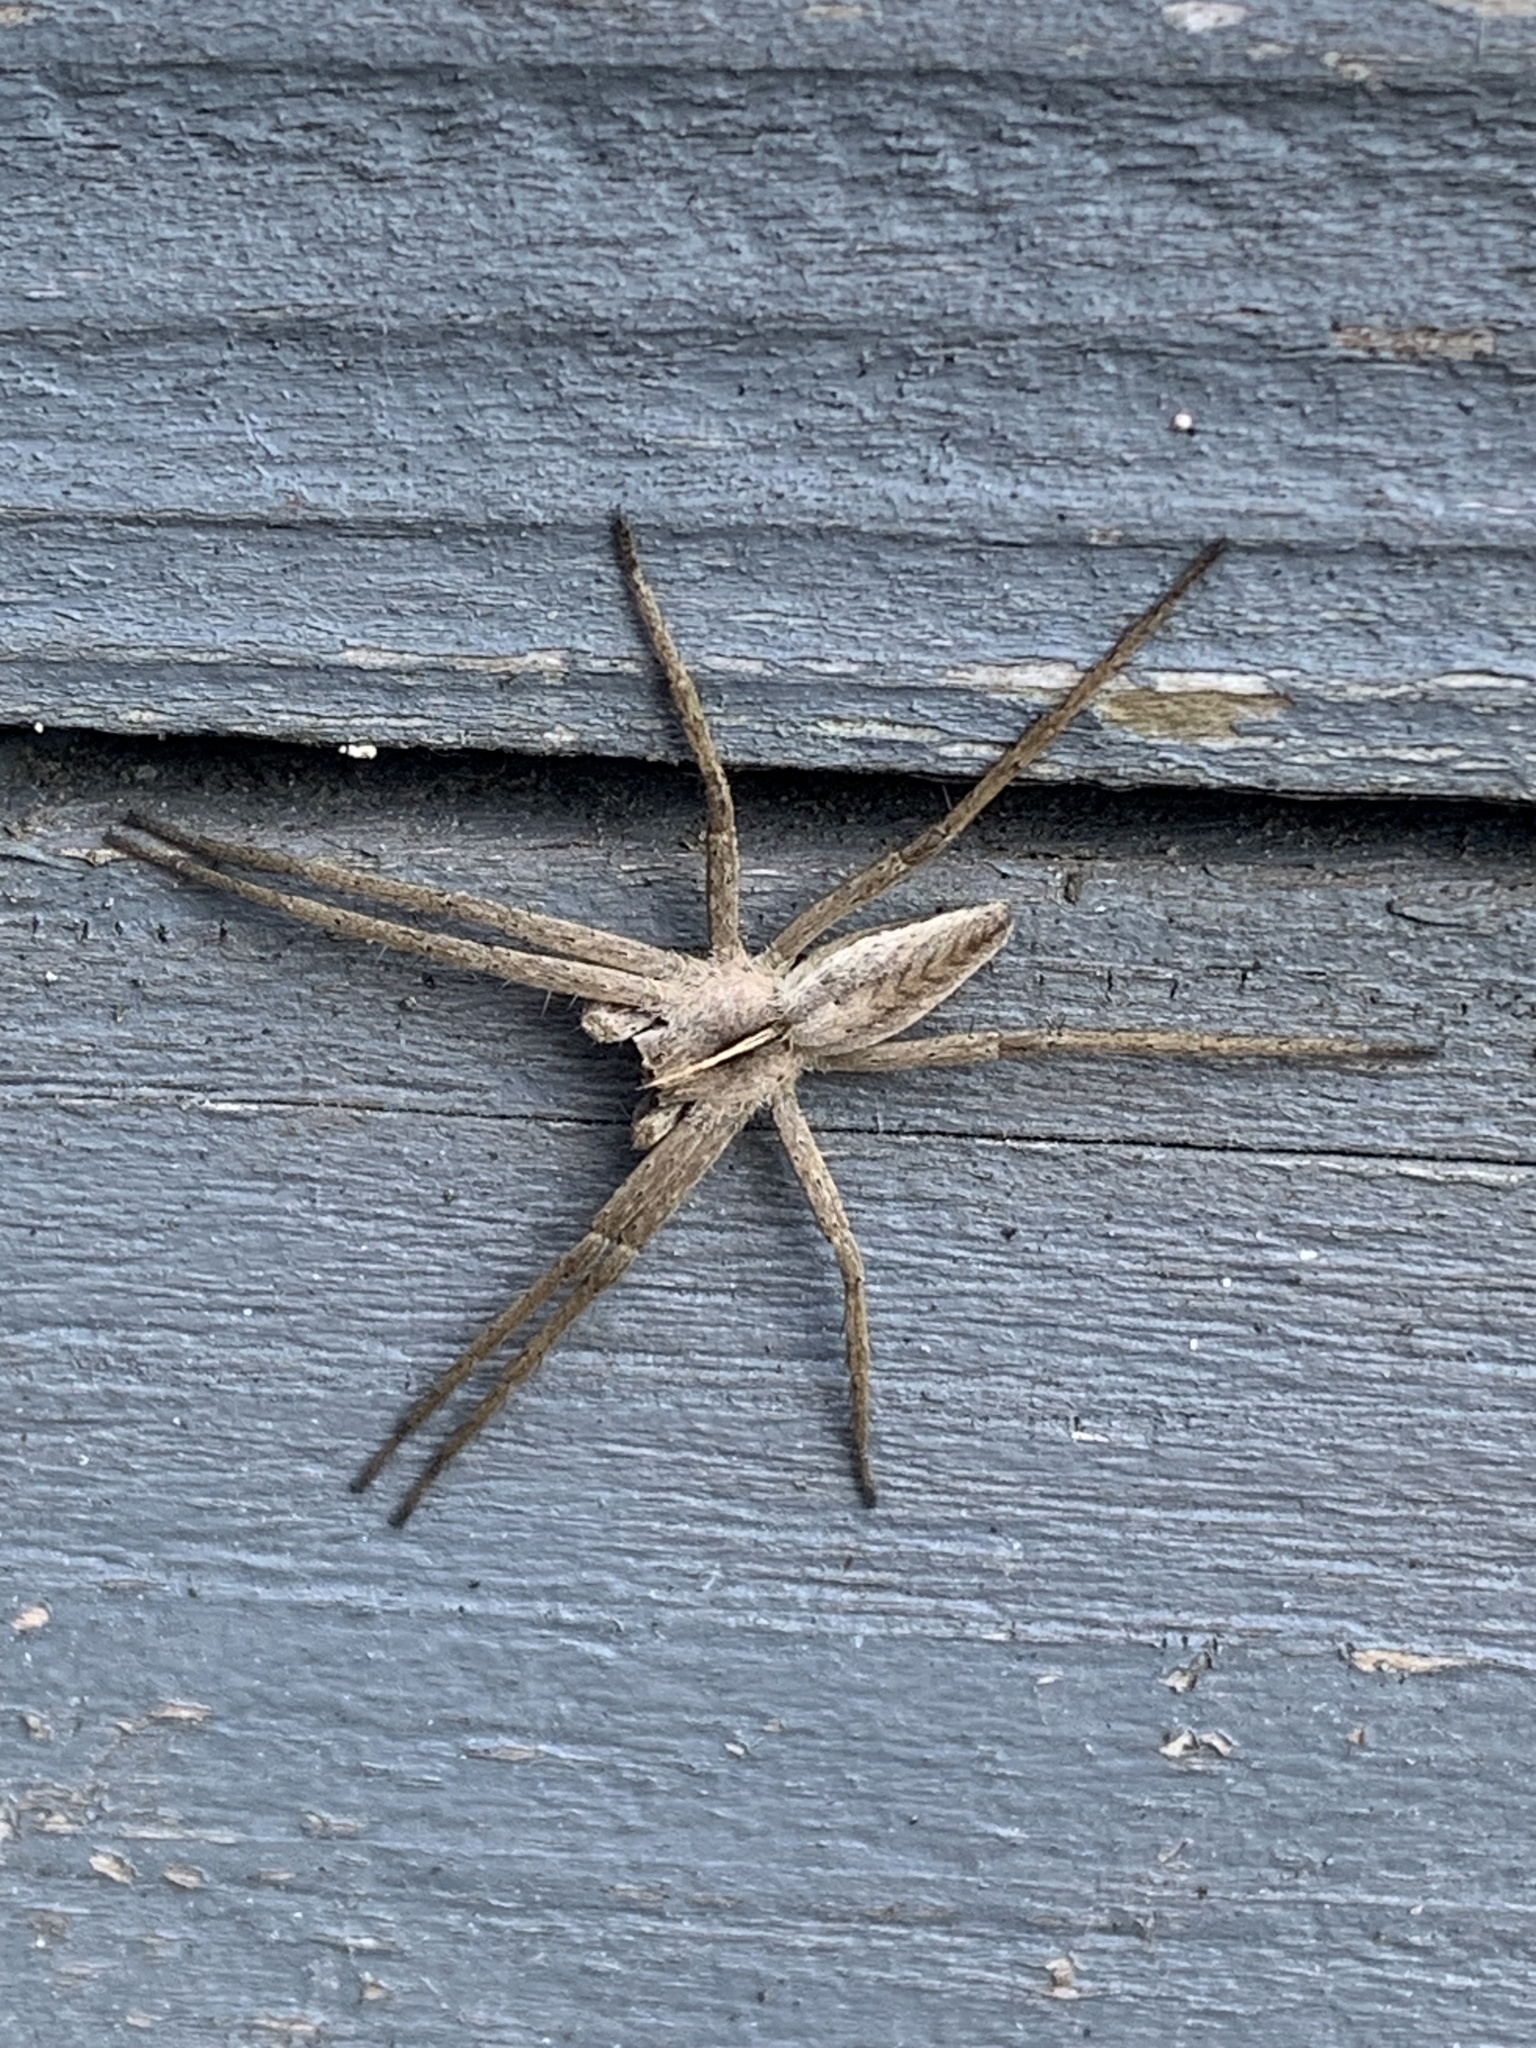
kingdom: Animalia
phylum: Arthropoda
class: Arachnida
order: Araneae
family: Pisauridae
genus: Pisaura
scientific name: Pisaura mirabilis
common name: Tent spider
